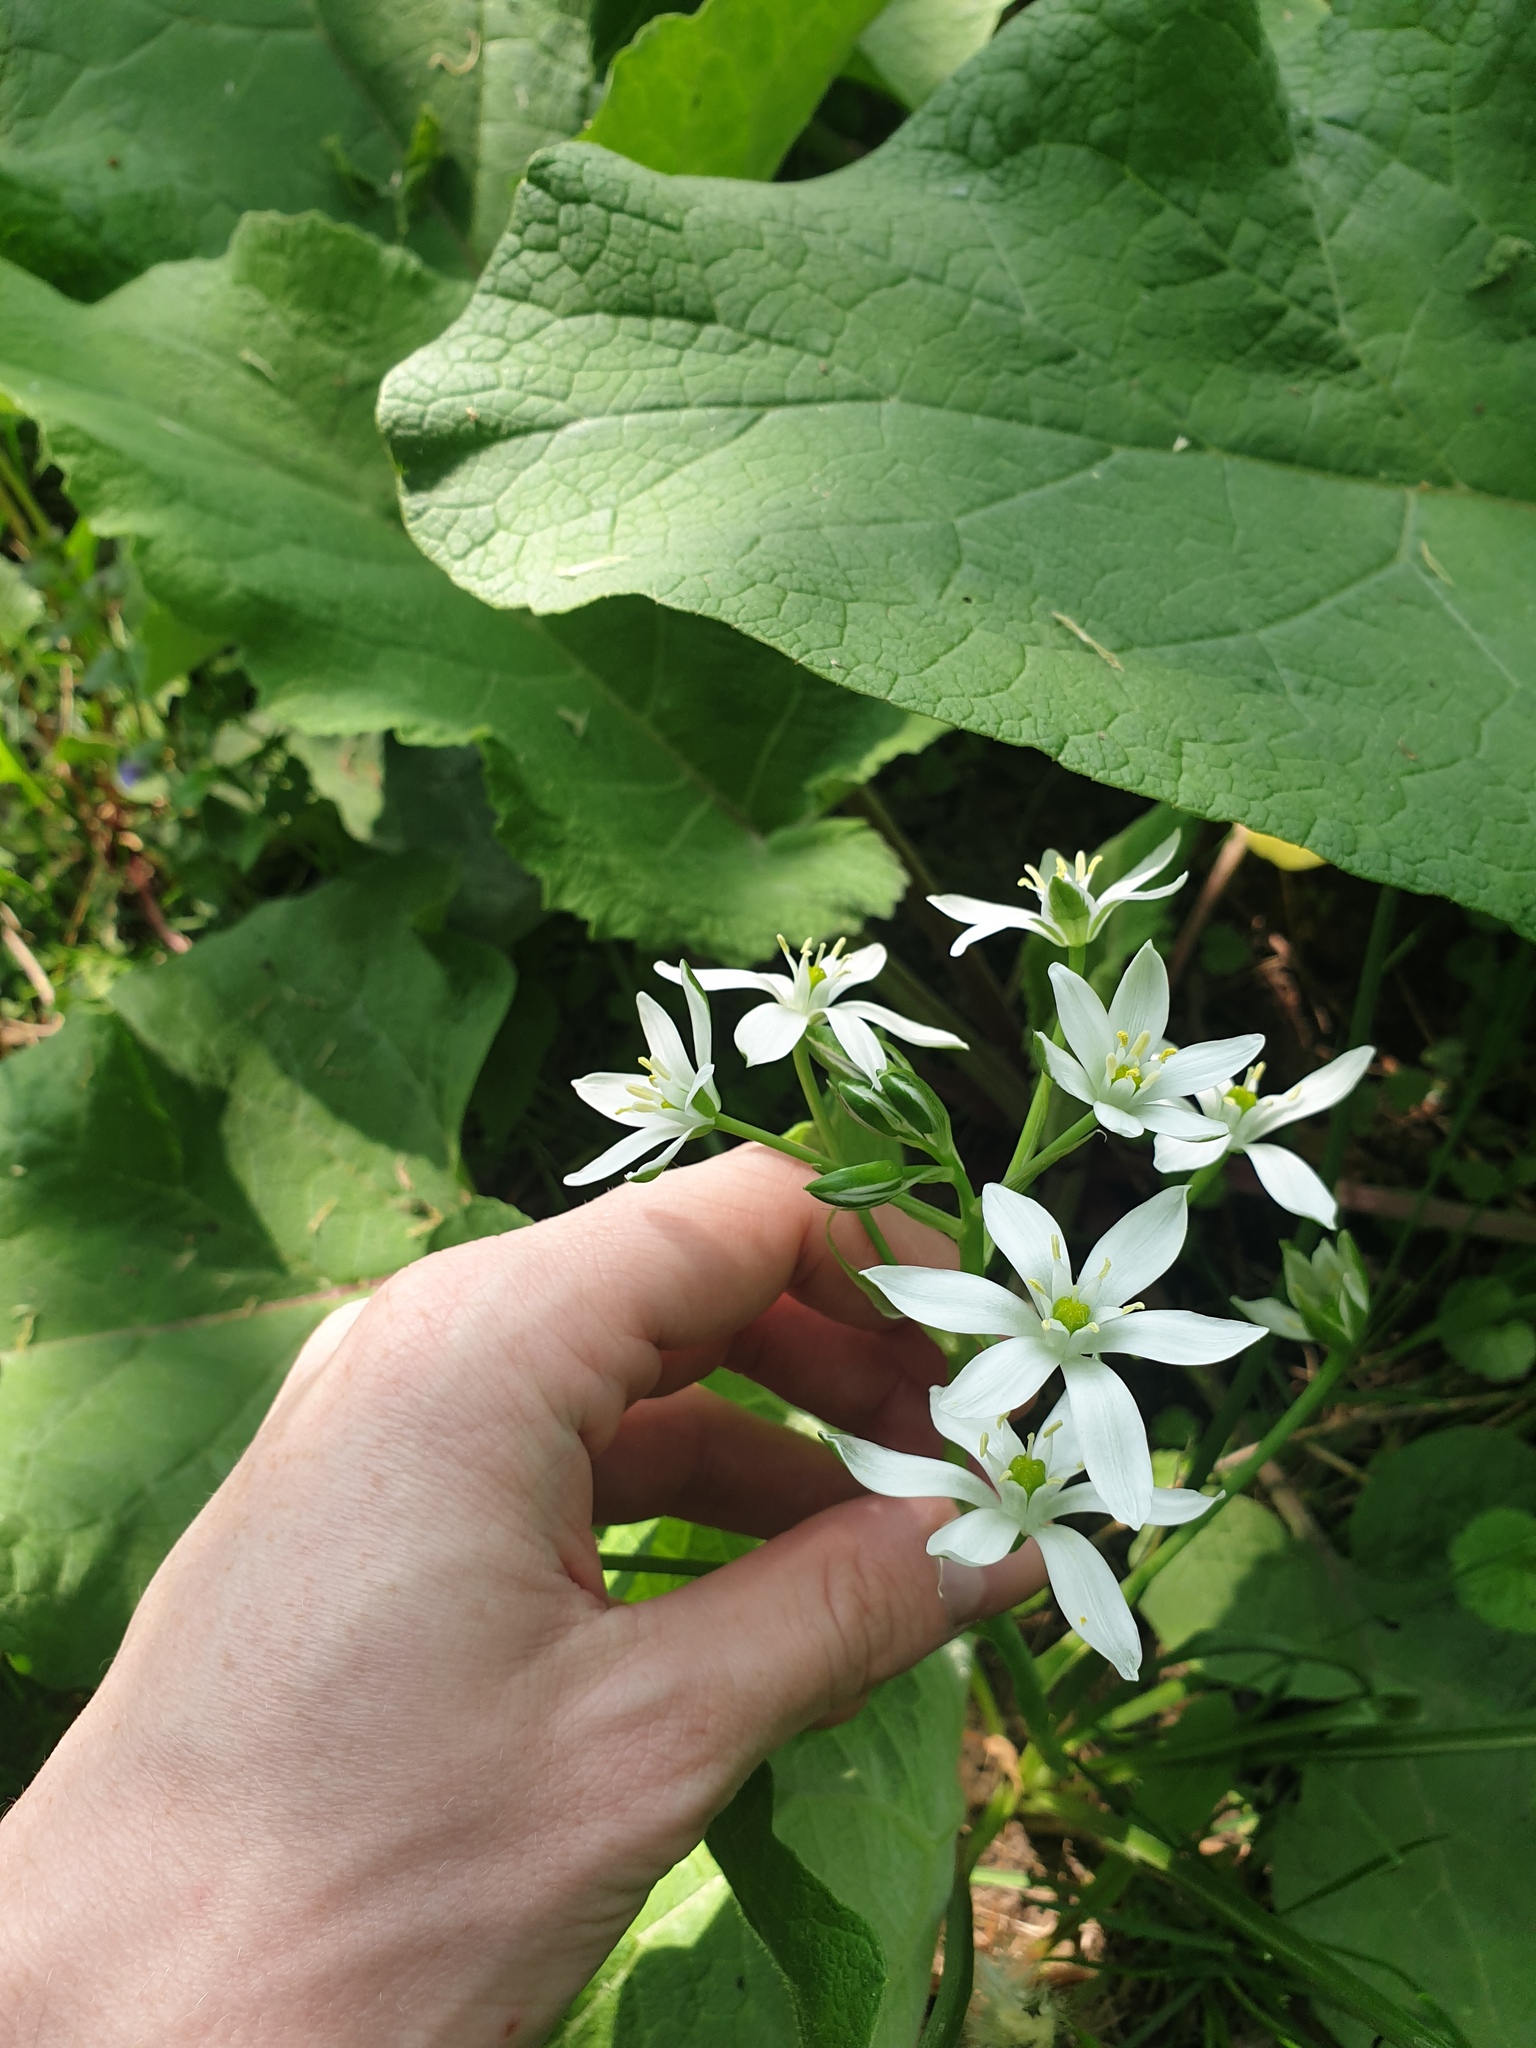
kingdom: Plantae
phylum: Tracheophyta
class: Liliopsida
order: Asparagales
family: Asparagaceae
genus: Ornithogalum
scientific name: Ornithogalum umbellatum
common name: Garden star-of-bethlehem
